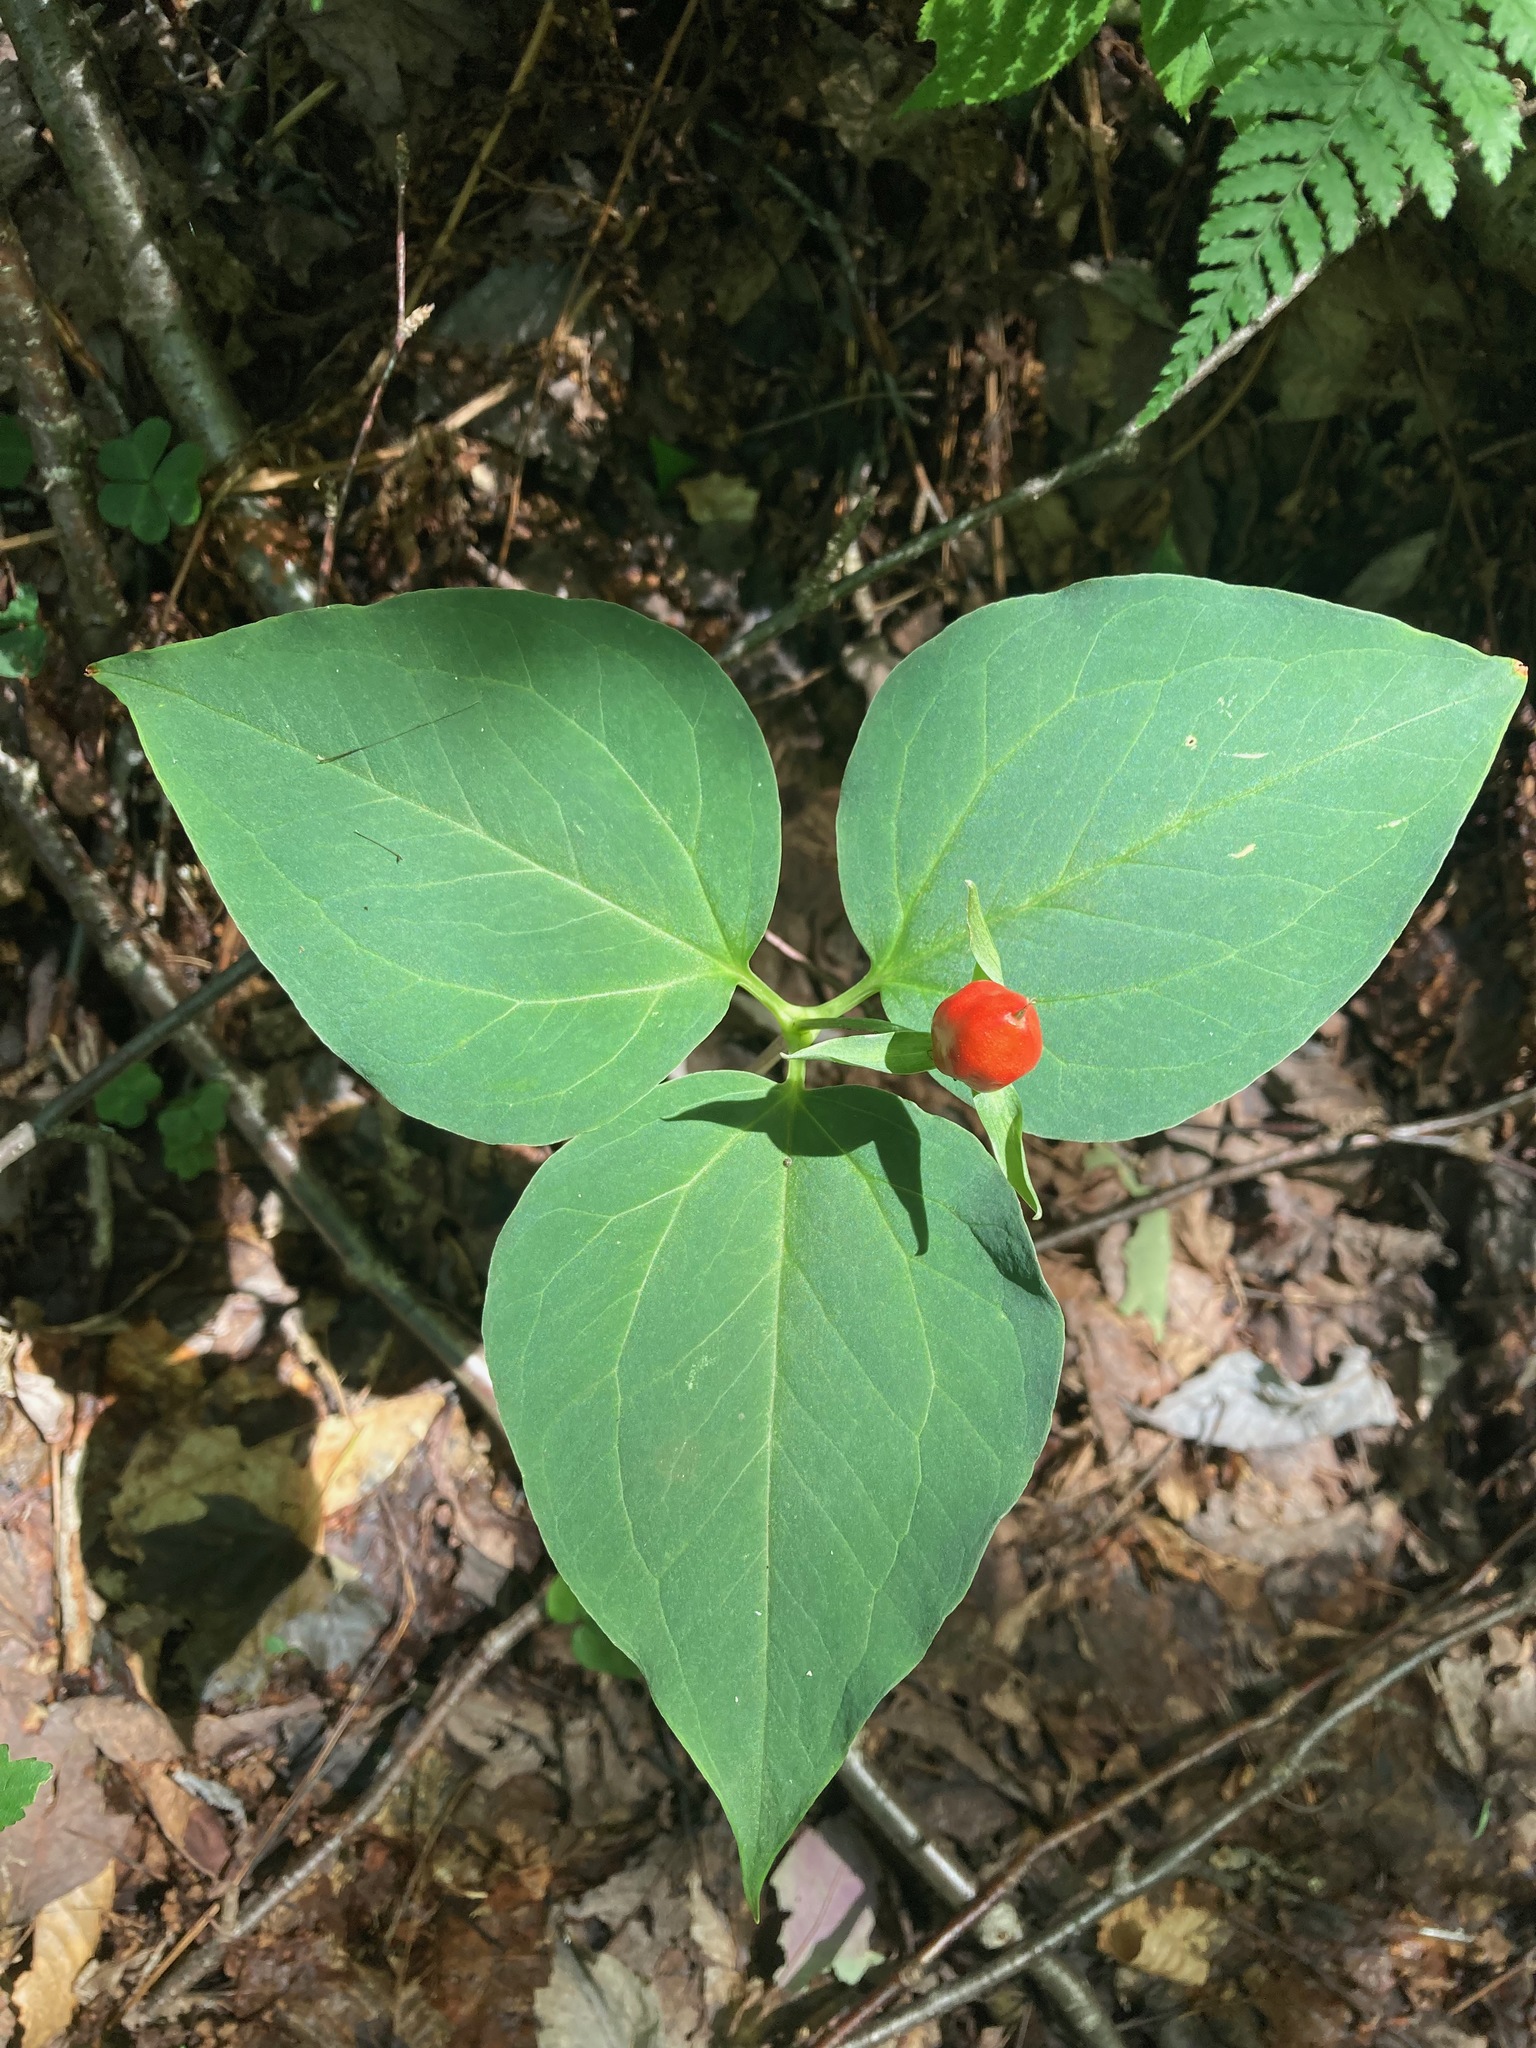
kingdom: Plantae
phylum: Tracheophyta
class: Liliopsida
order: Liliales
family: Melanthiaceae
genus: Trillium
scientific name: Trillium undulatum
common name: Paint trillium
